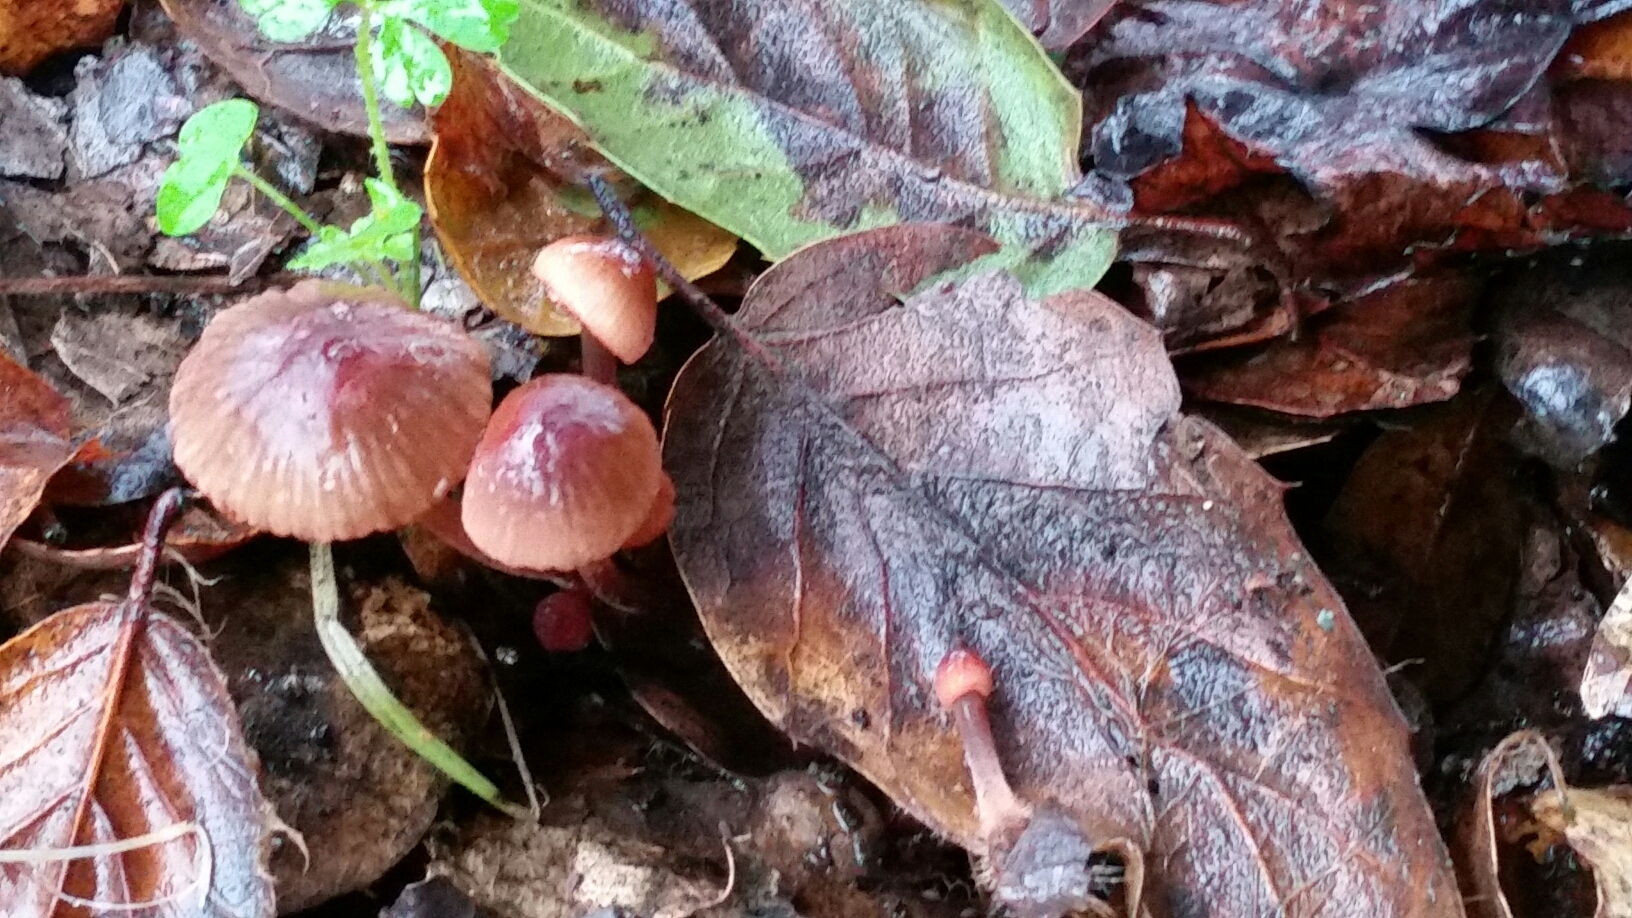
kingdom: Fungi
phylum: Basidiomycota
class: Agaricomycetes
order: Agaricales
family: Mycenaceae
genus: Mycena
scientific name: Mycena
